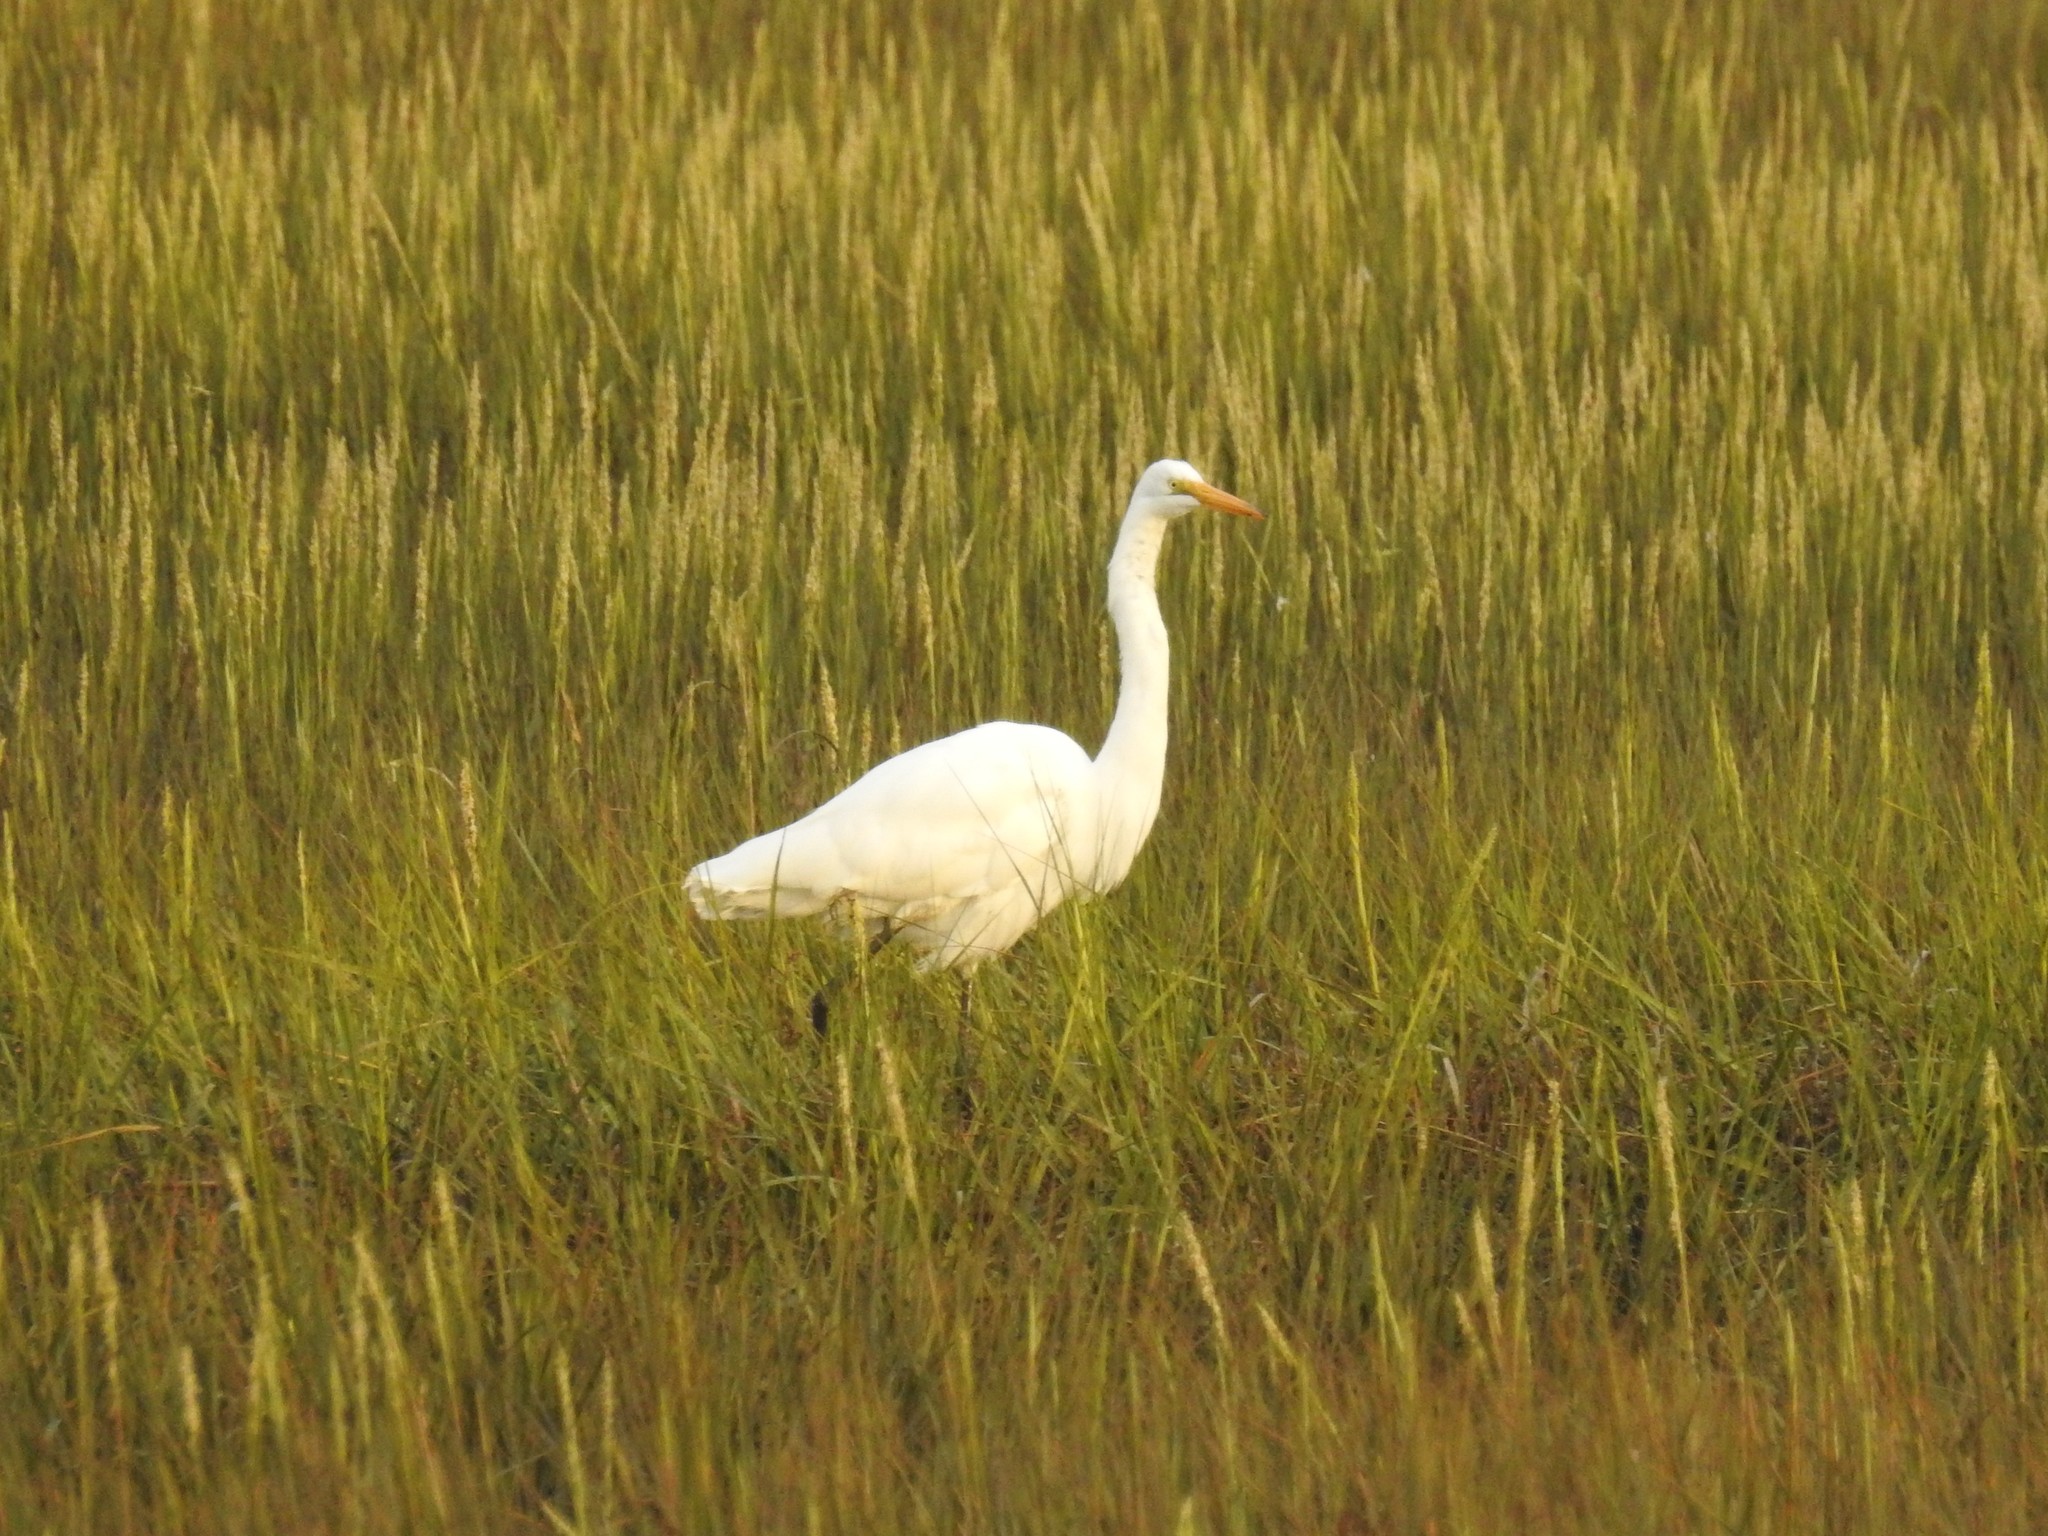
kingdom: Animalia
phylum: Chordata
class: Aves
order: Pelecaniformes
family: Ardeidae
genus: Ardea
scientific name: Ardea alba
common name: Great egret
